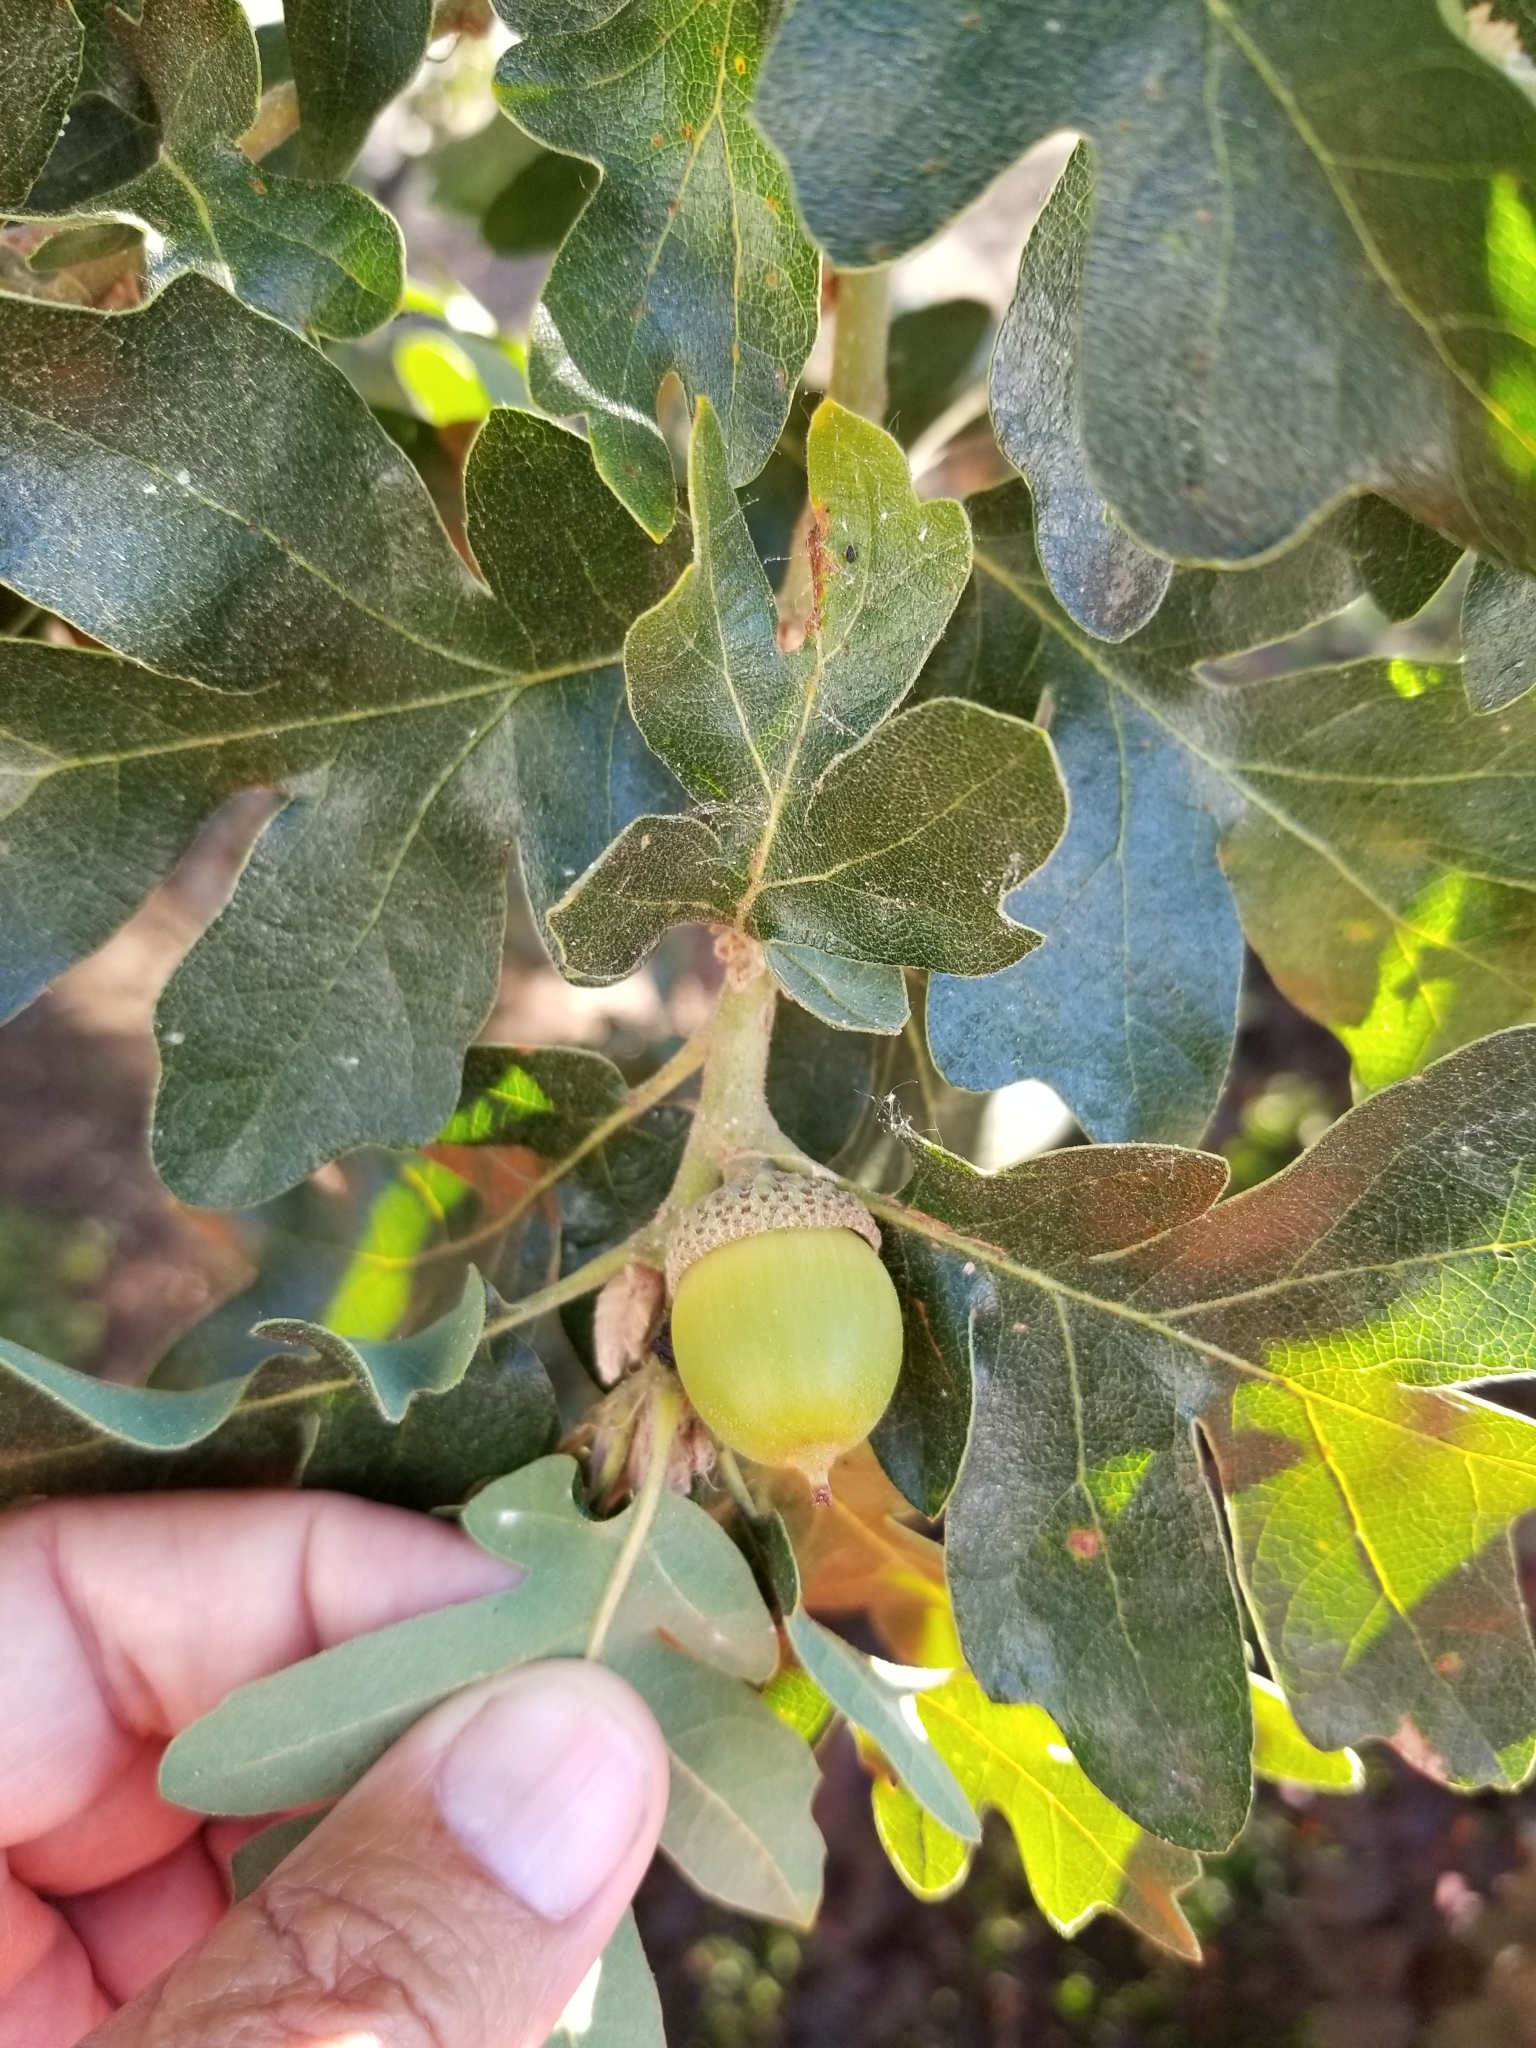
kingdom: Plantae
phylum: Tracheophyta
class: Magnoliopsida
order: Fagales
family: Fagaceae
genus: Quercus
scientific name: Quercus garryana
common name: Garry oak
